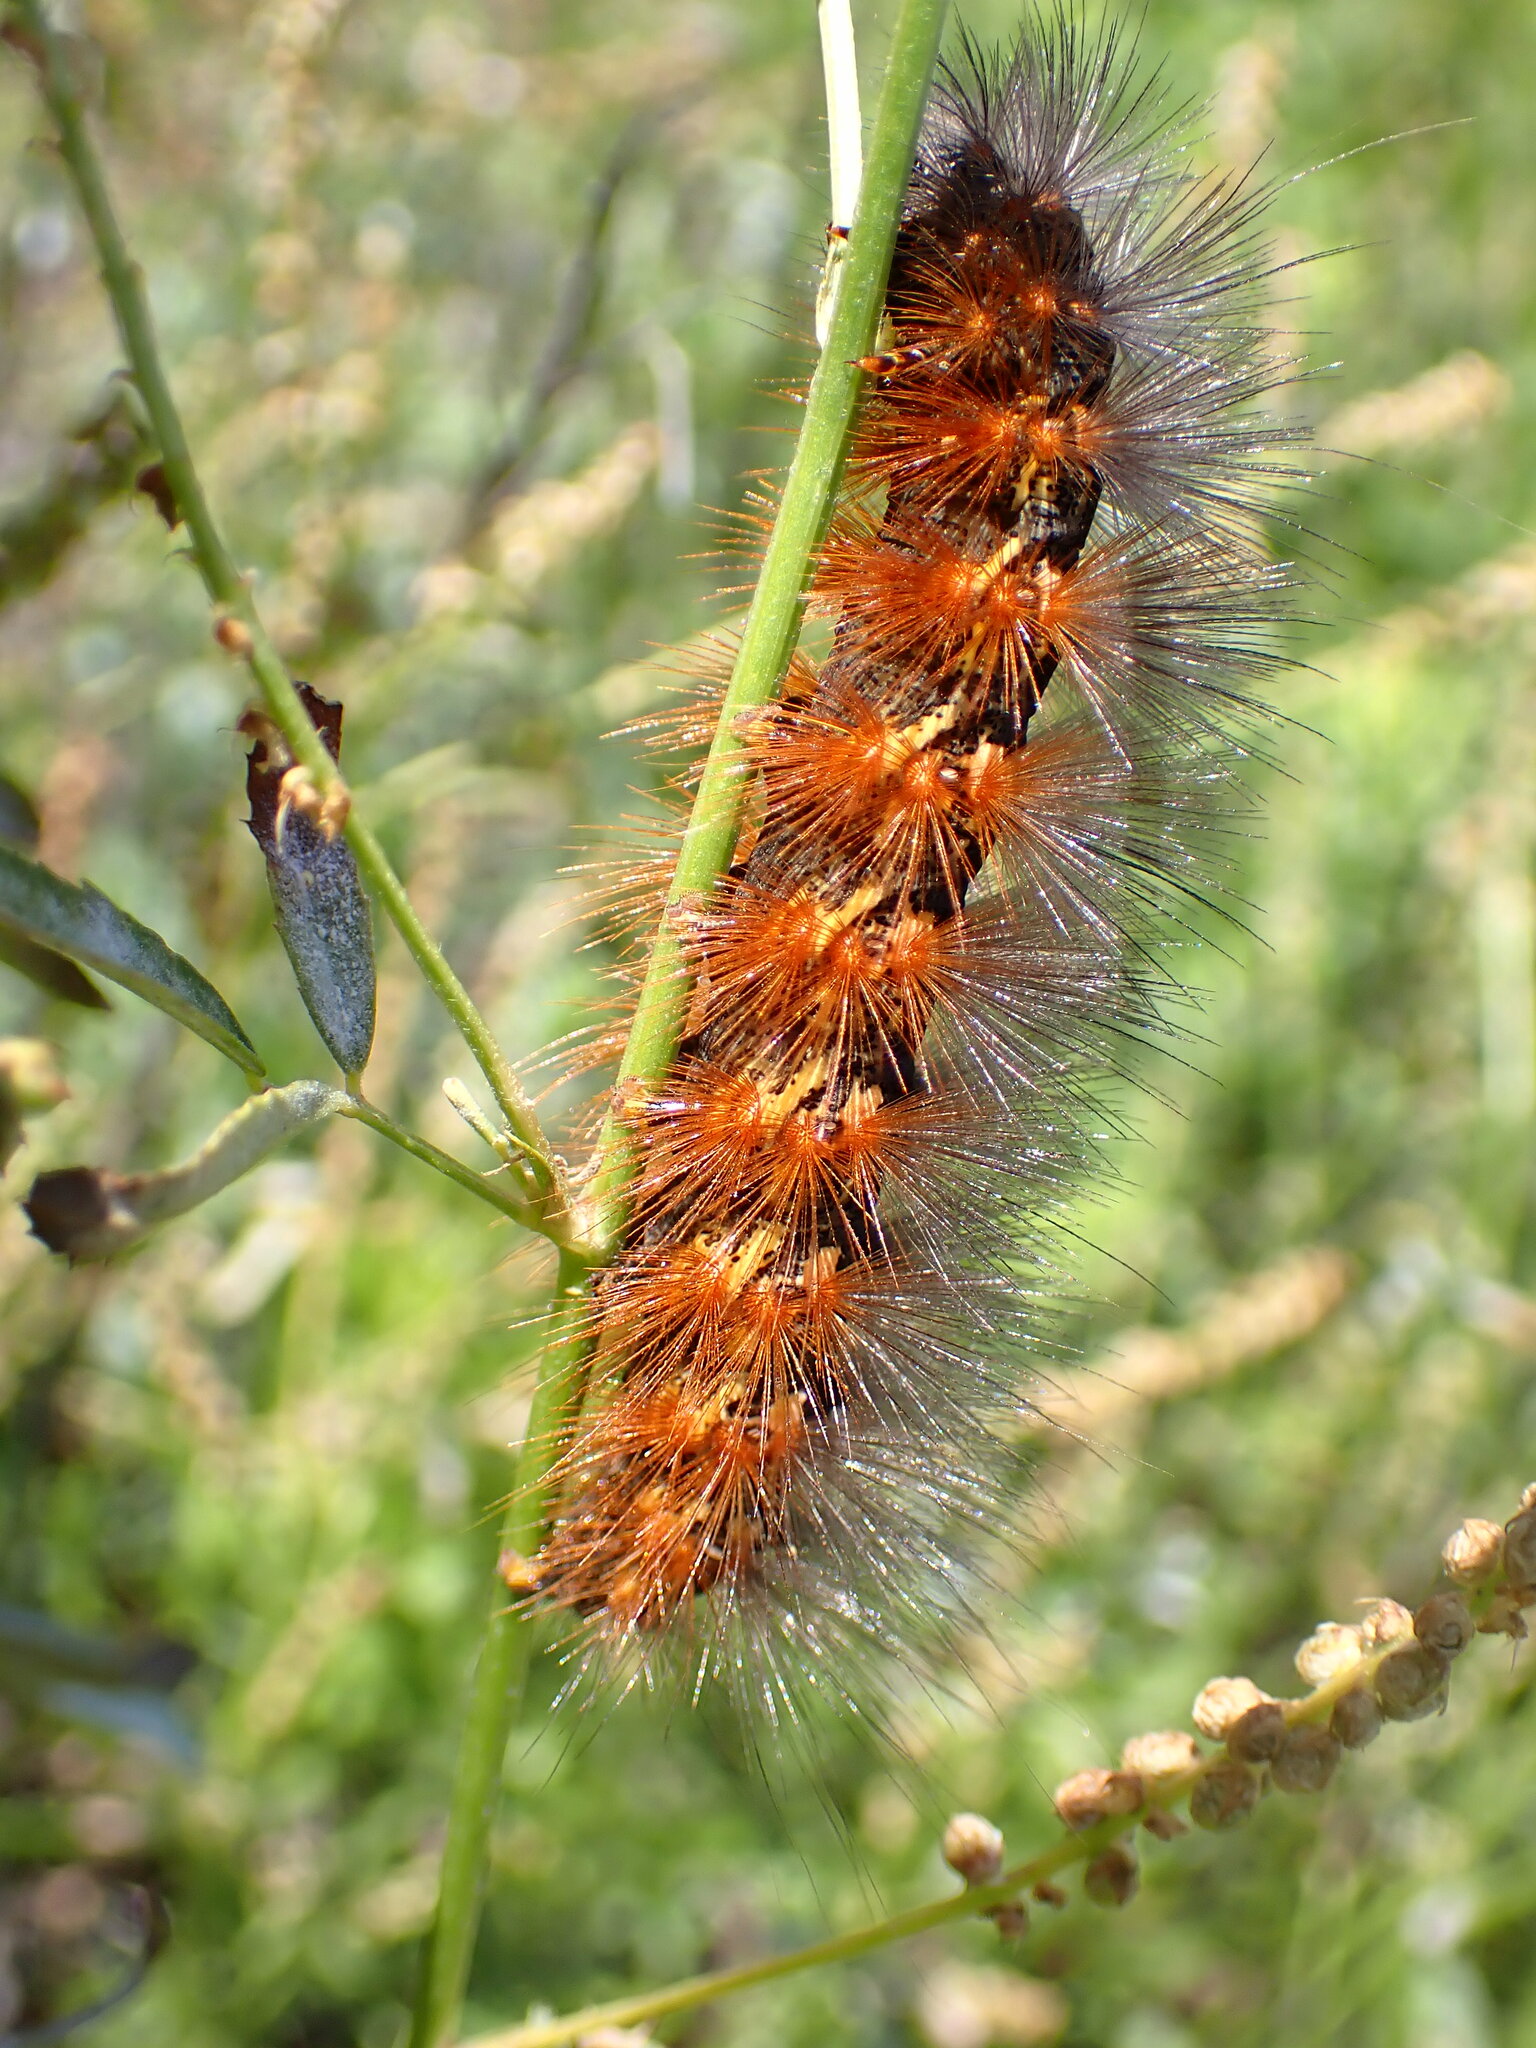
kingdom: Animalia
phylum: Arthropoda
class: Insecta
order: Lepidoptera
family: Erebidae
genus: Estigmene
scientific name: Estigmene acrea
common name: Salt marsh moth
